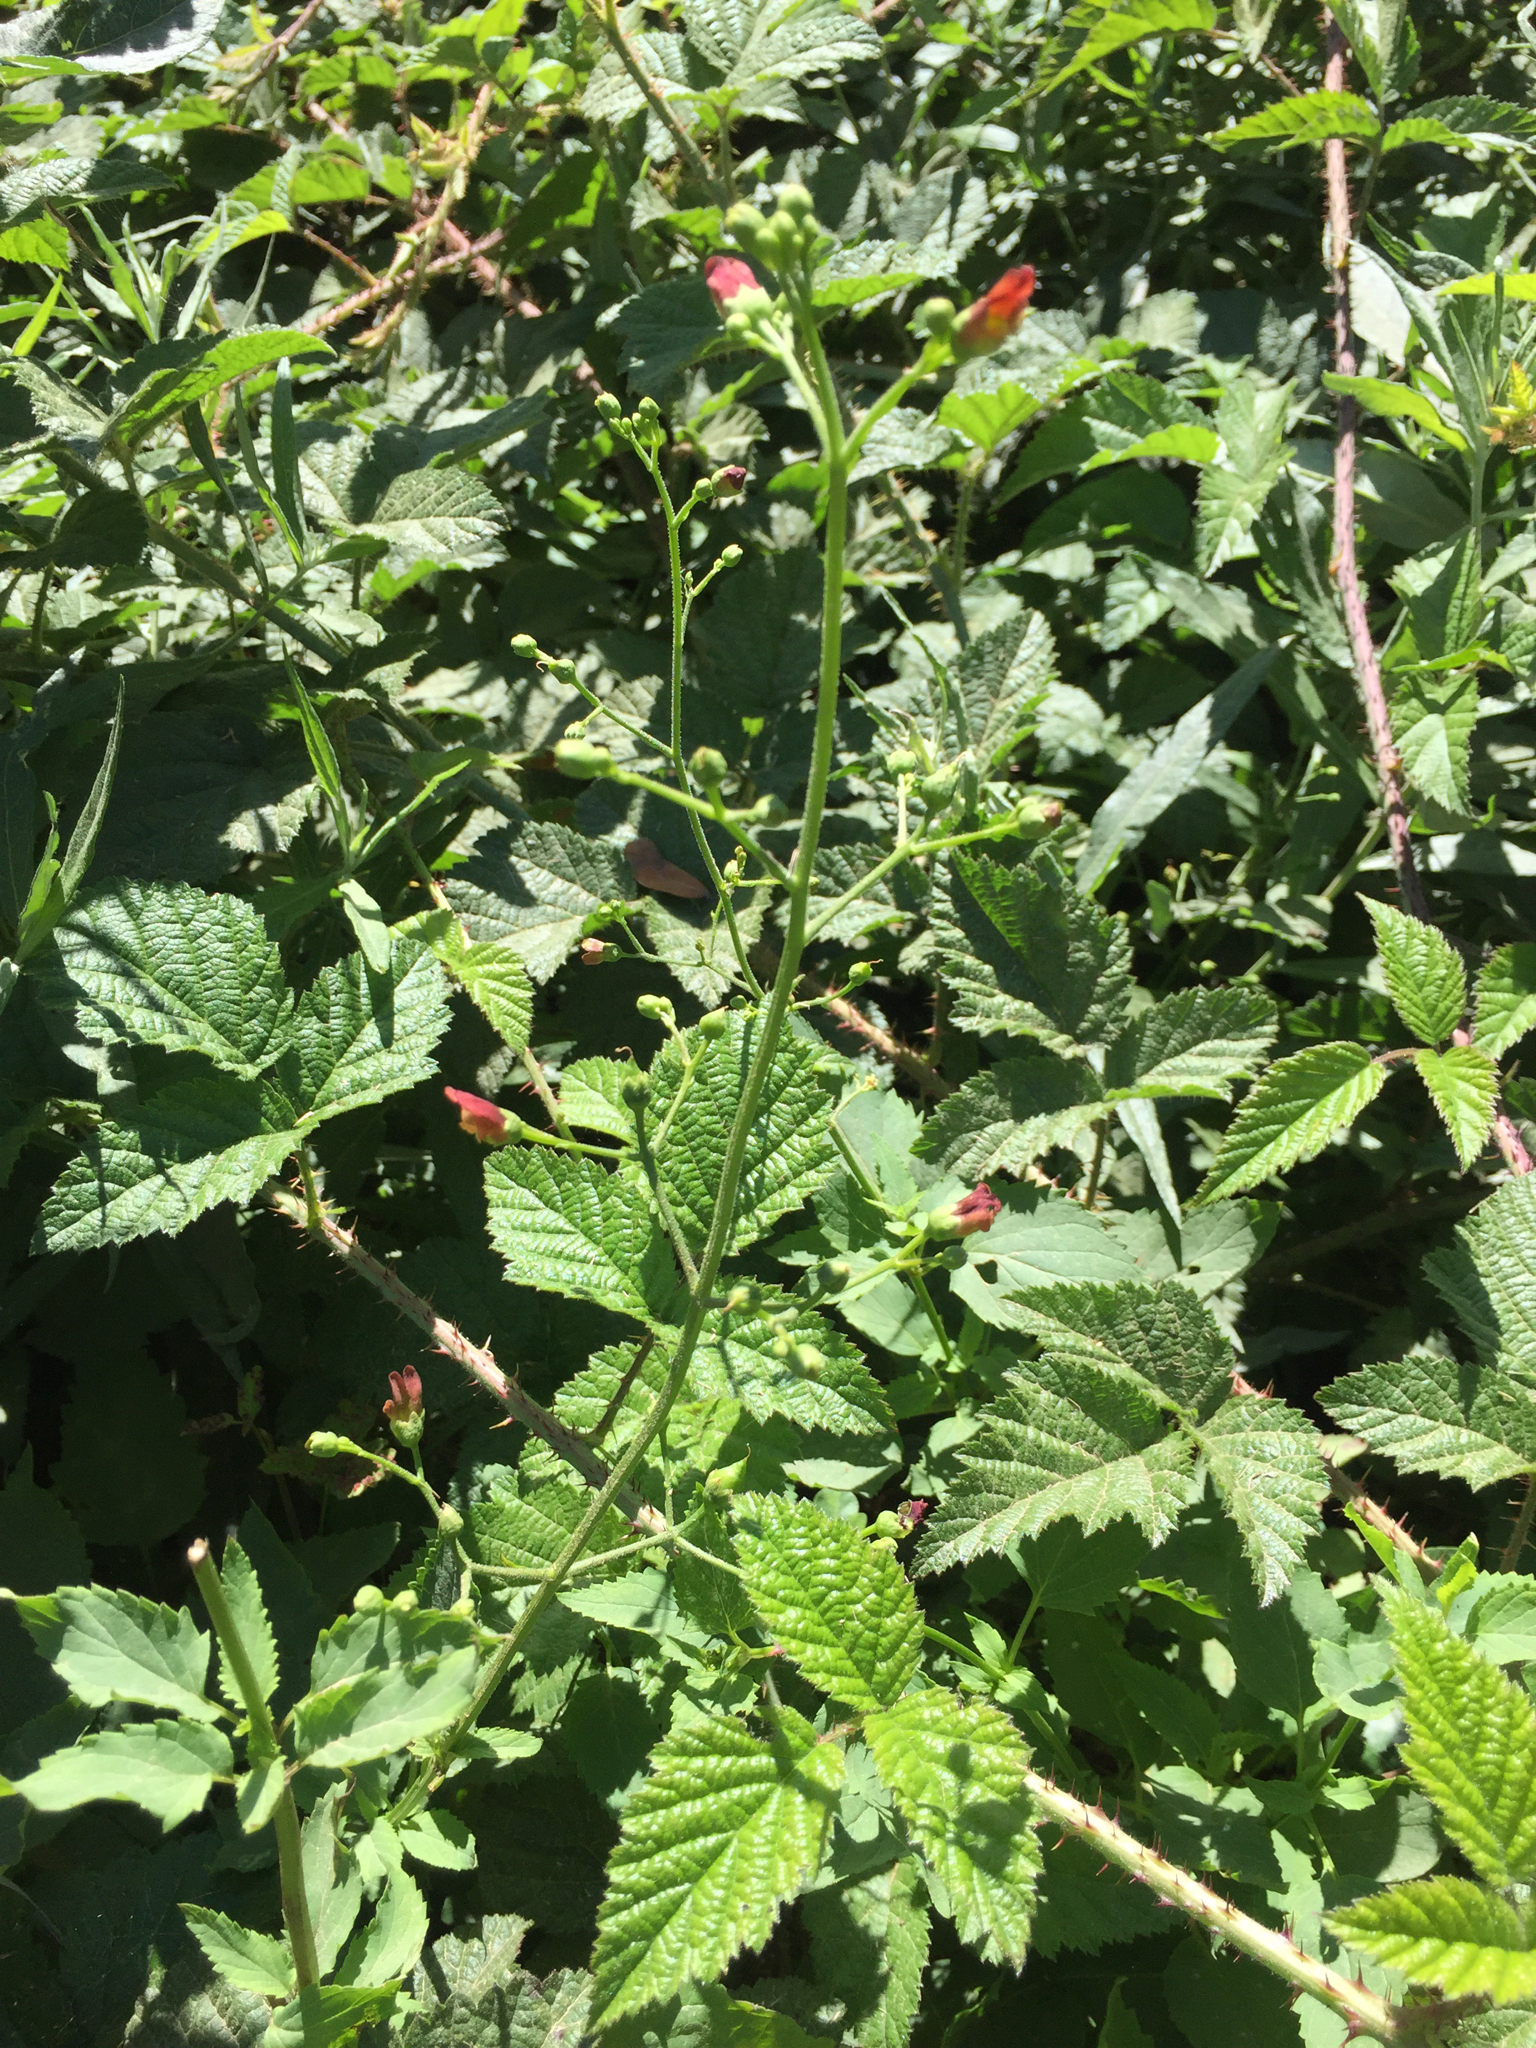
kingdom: Plantae
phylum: Tracheophyta
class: Magnoliopsida
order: Lamiales
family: Scrophulariaceae
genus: Scrophularia
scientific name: Scrophularia californica
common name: California figwort
